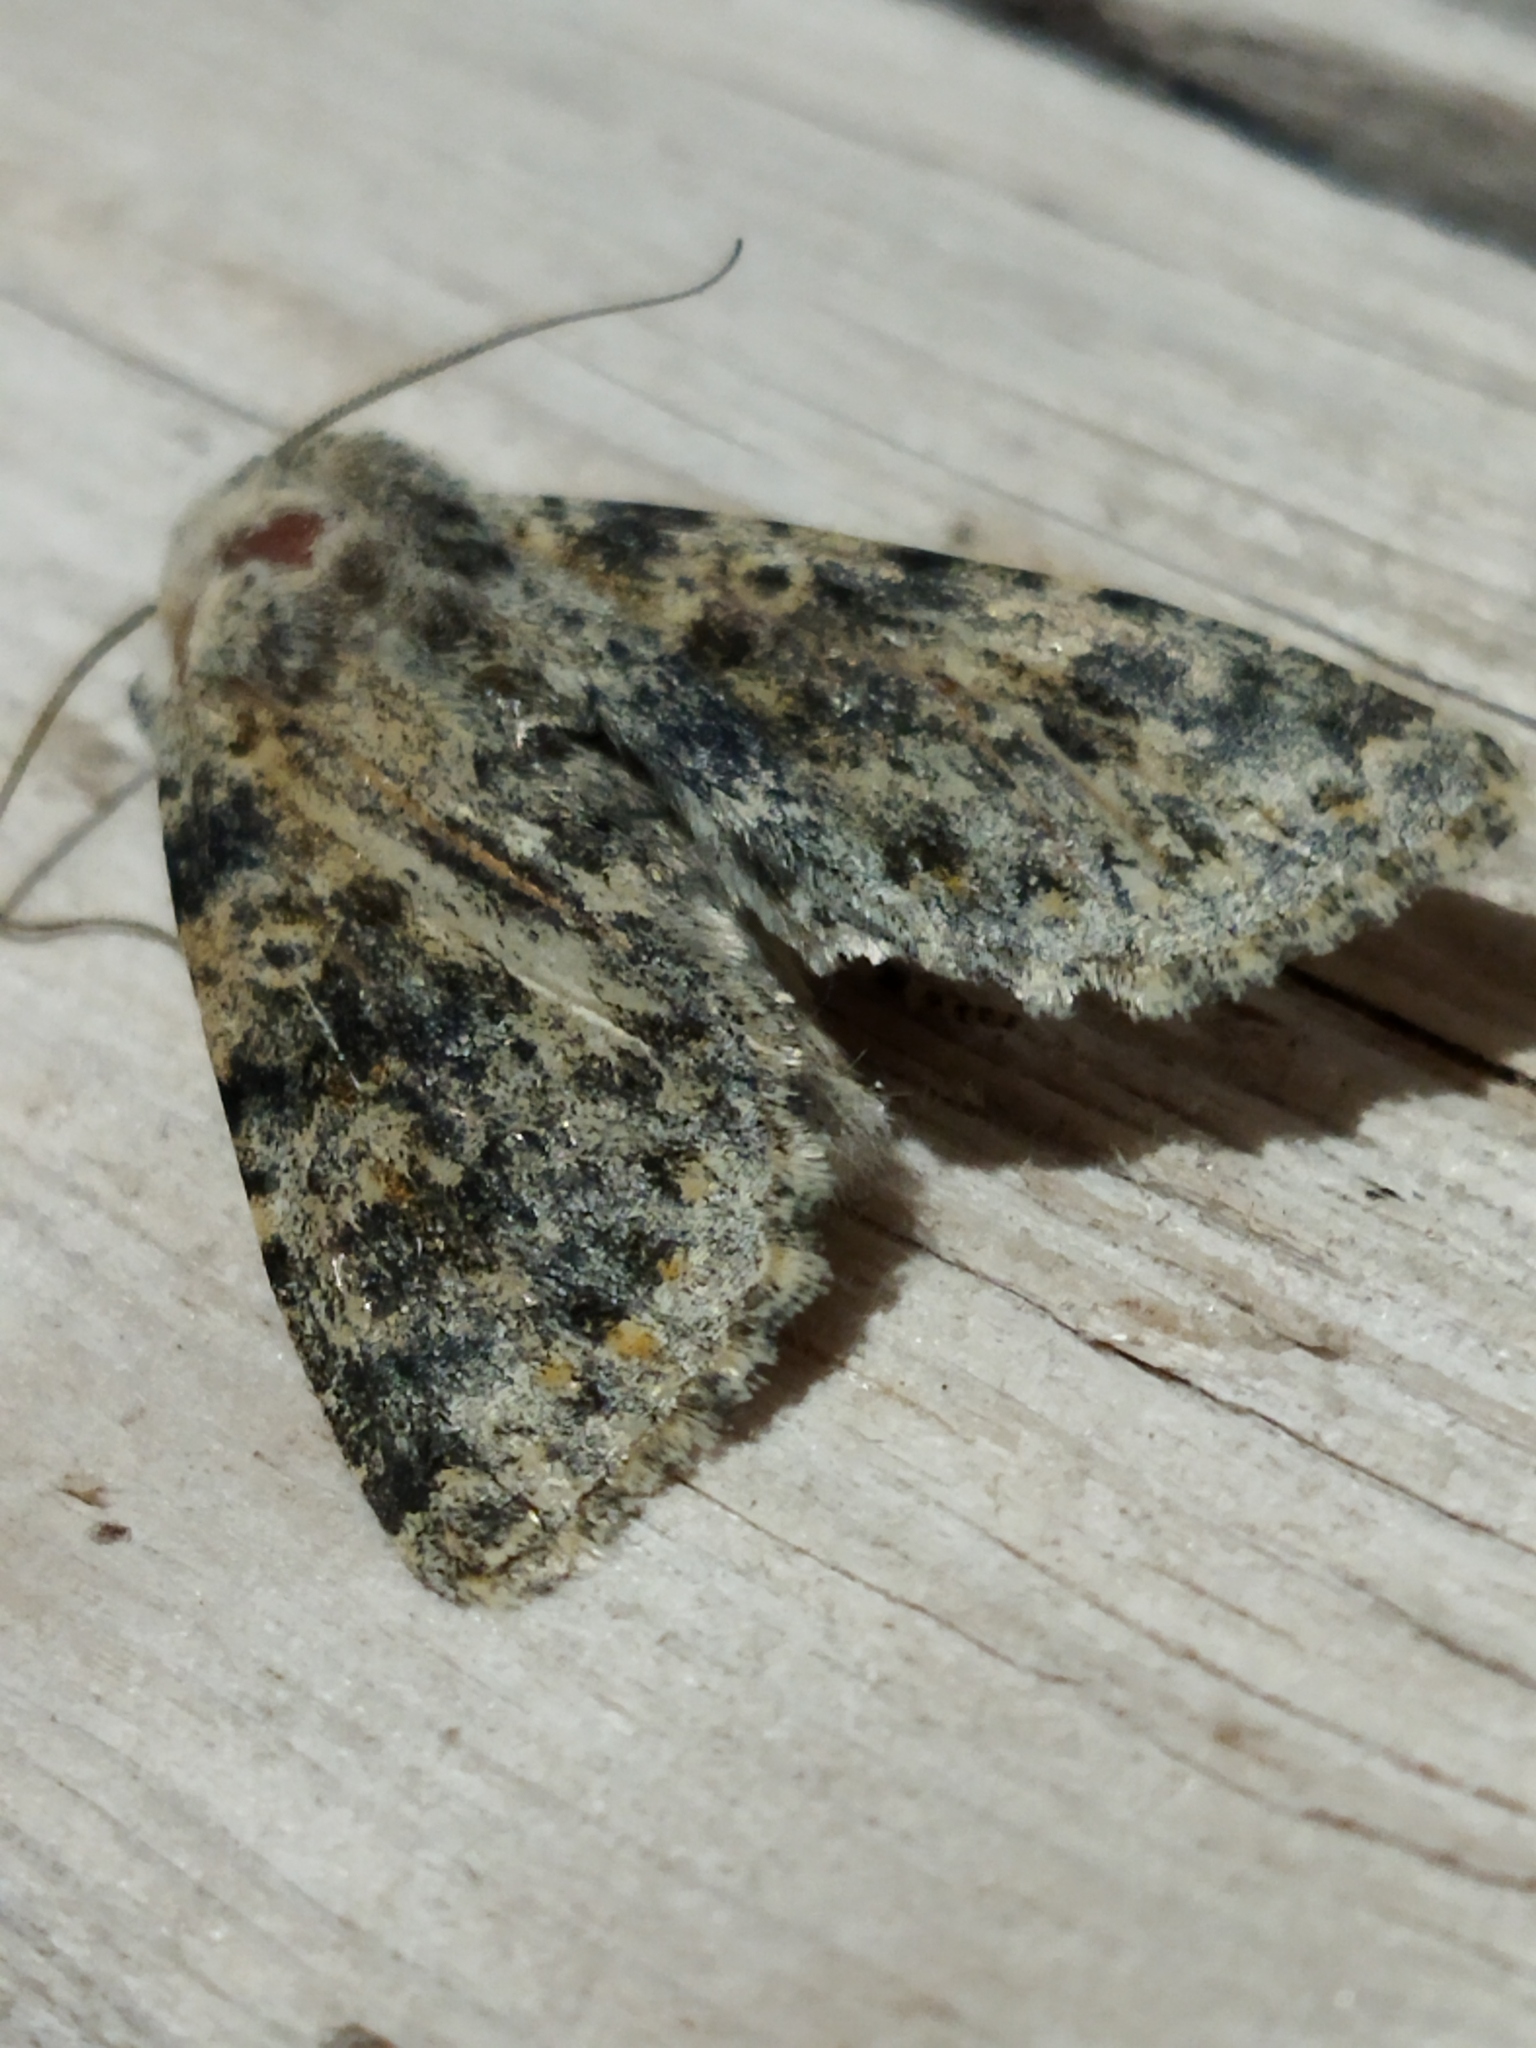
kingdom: Animalia
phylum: Arthropoda
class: Insecta
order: Lepidoptera
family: Noctuidae
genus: Polymixis
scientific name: Polymixis rufocincta
